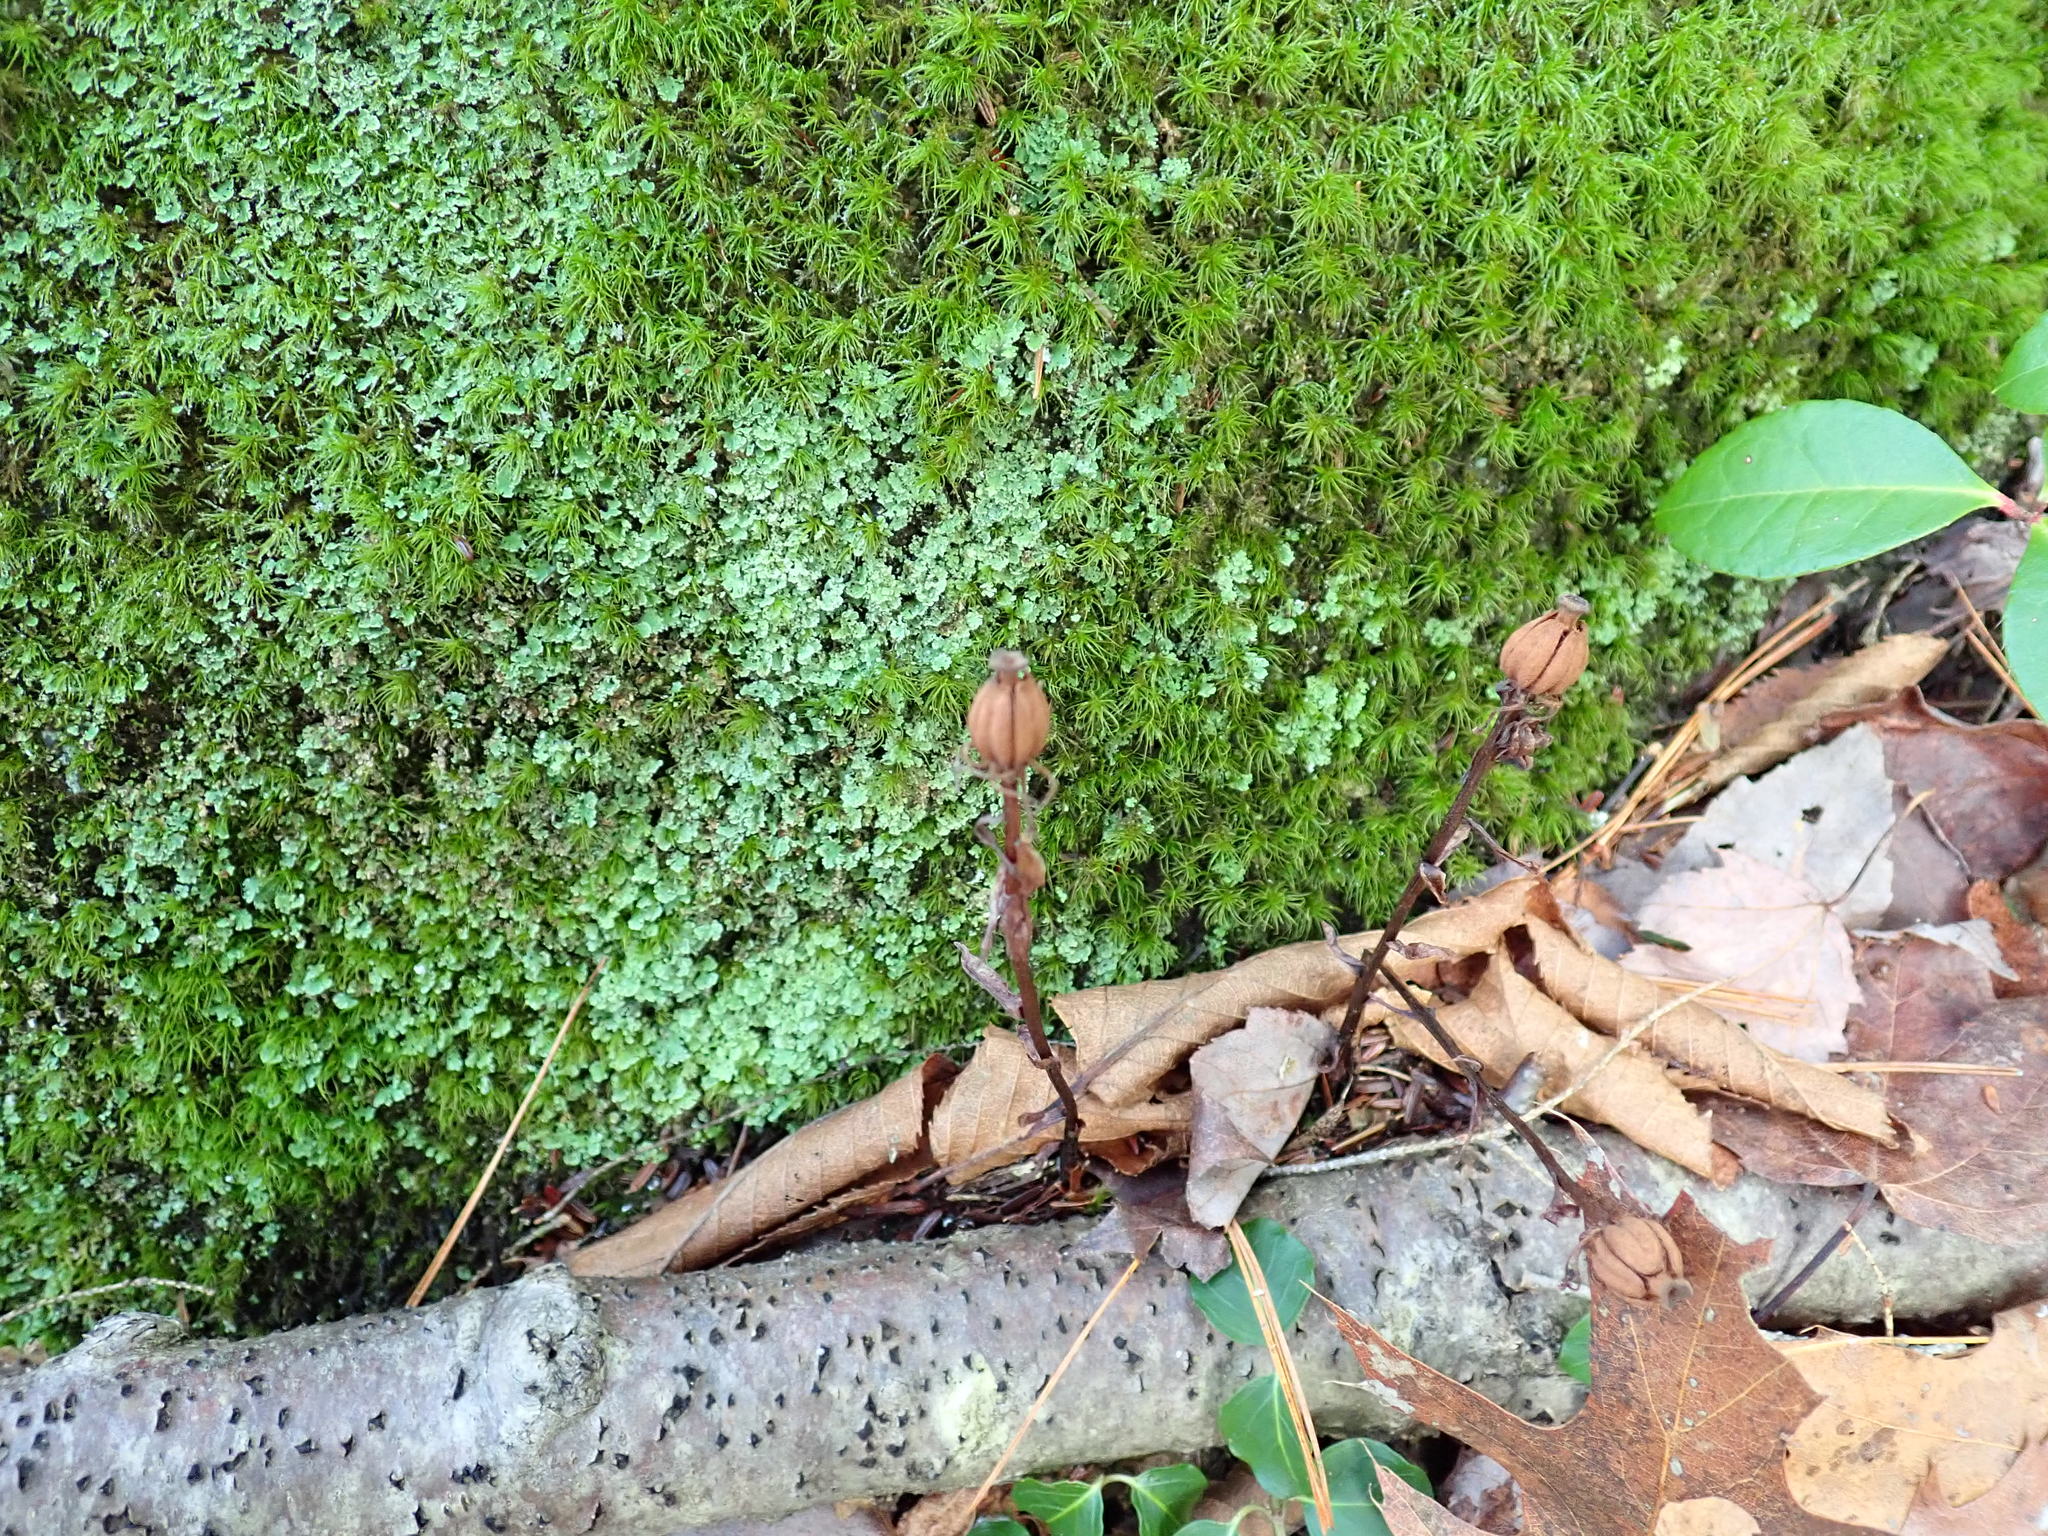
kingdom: Plantae
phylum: Tracheophyta
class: Magnoliopsida
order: Ericales
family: Ericaceae
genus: Monotropa
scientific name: Monotropa uniflora
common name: Convulsion root
